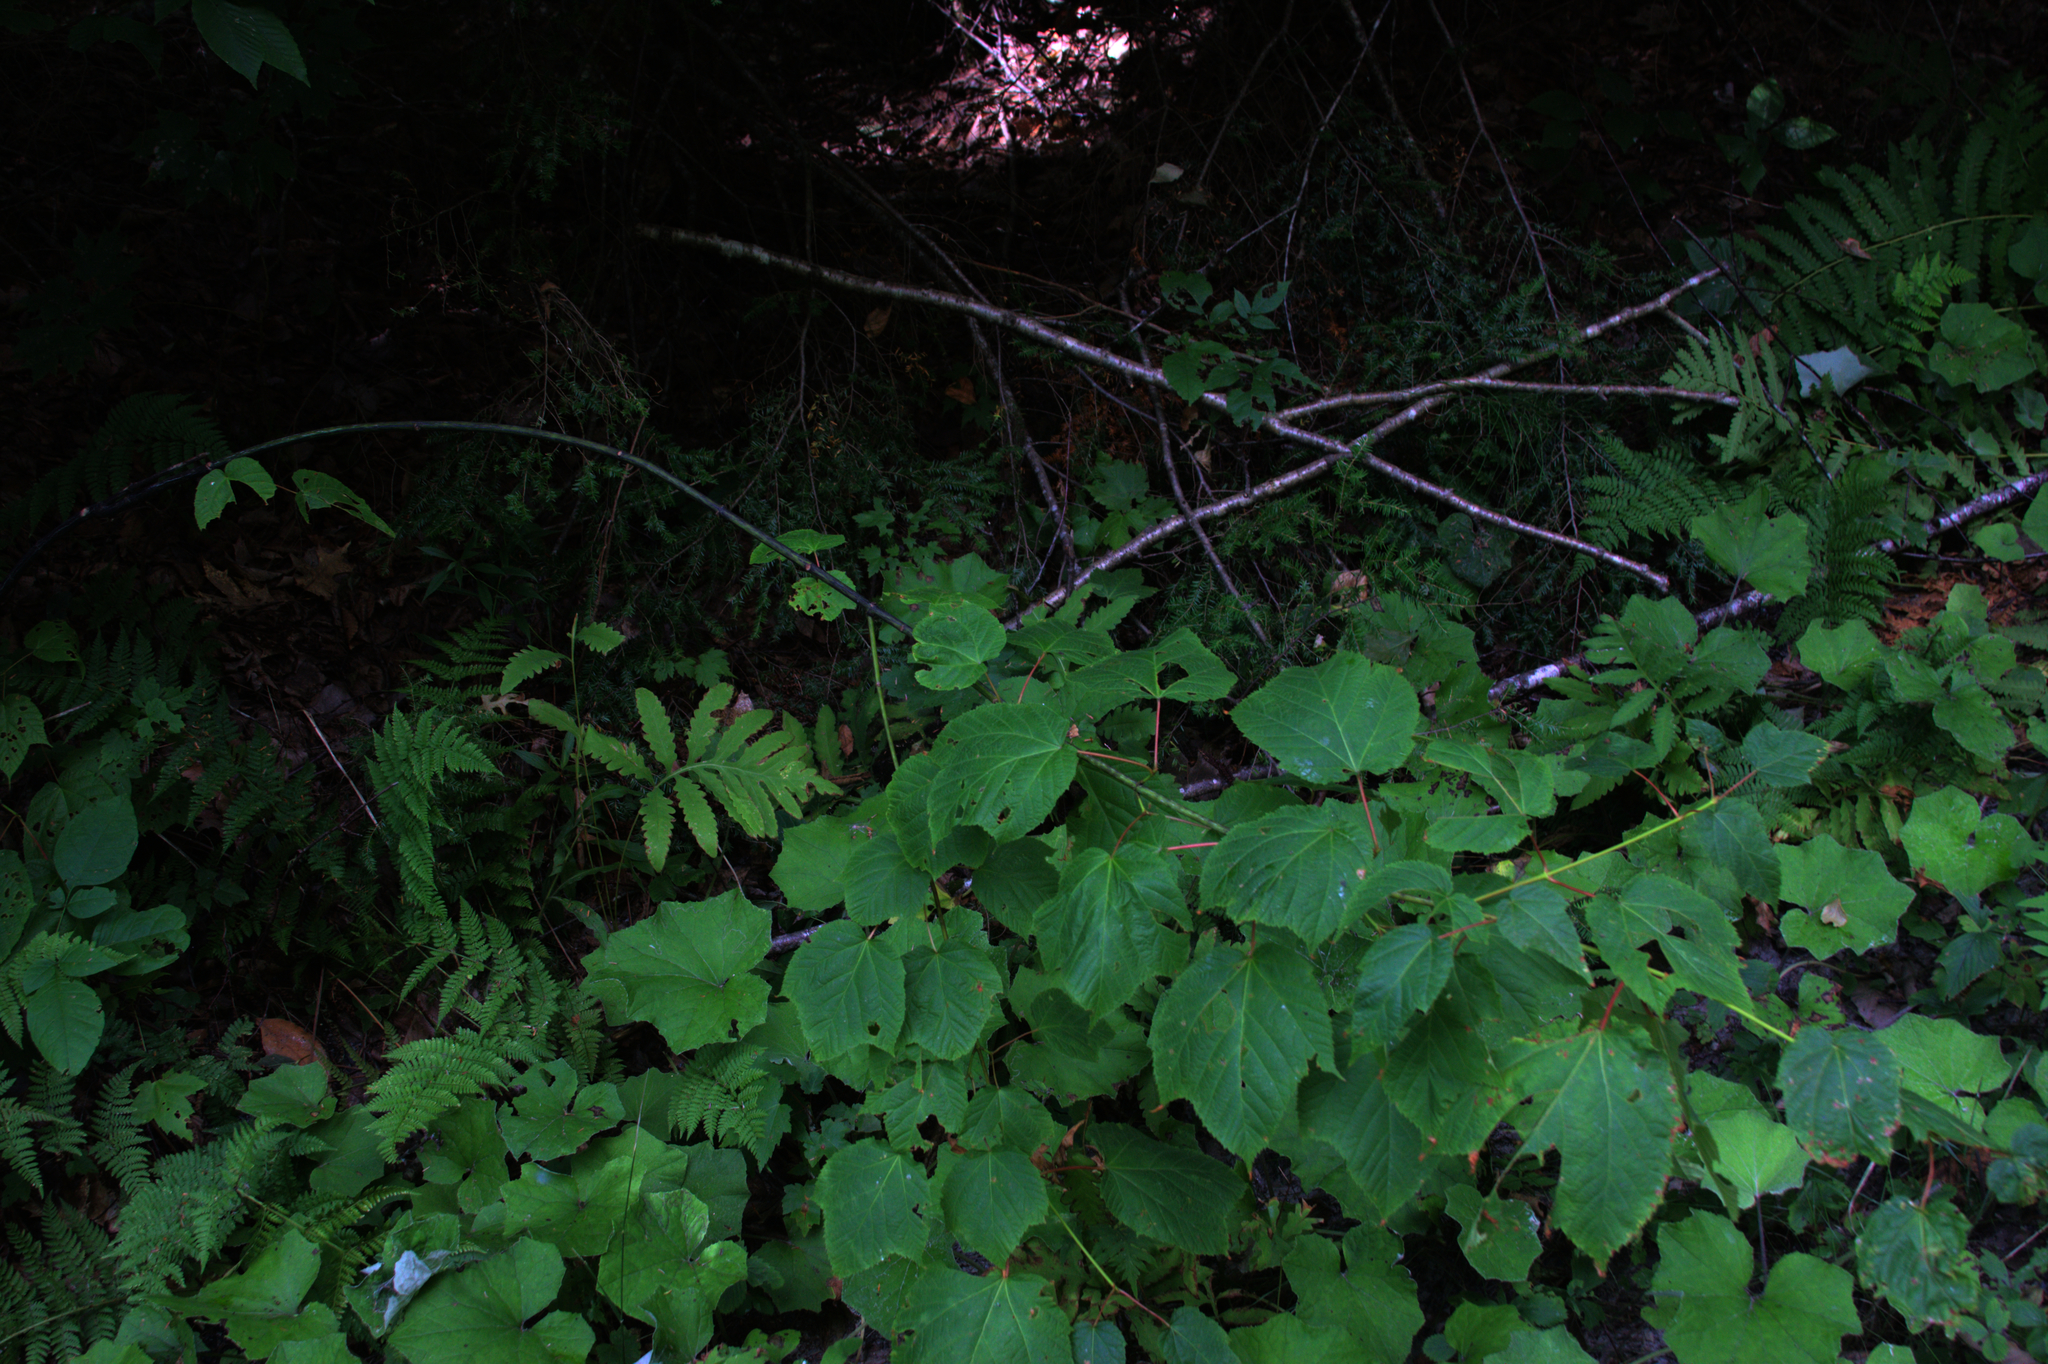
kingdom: Plantae
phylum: Tracheophyta
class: Magnoliopsida
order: Sapindales
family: Sapindaceae
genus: Acer
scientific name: Acer pensylvanicum
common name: Moosewood
